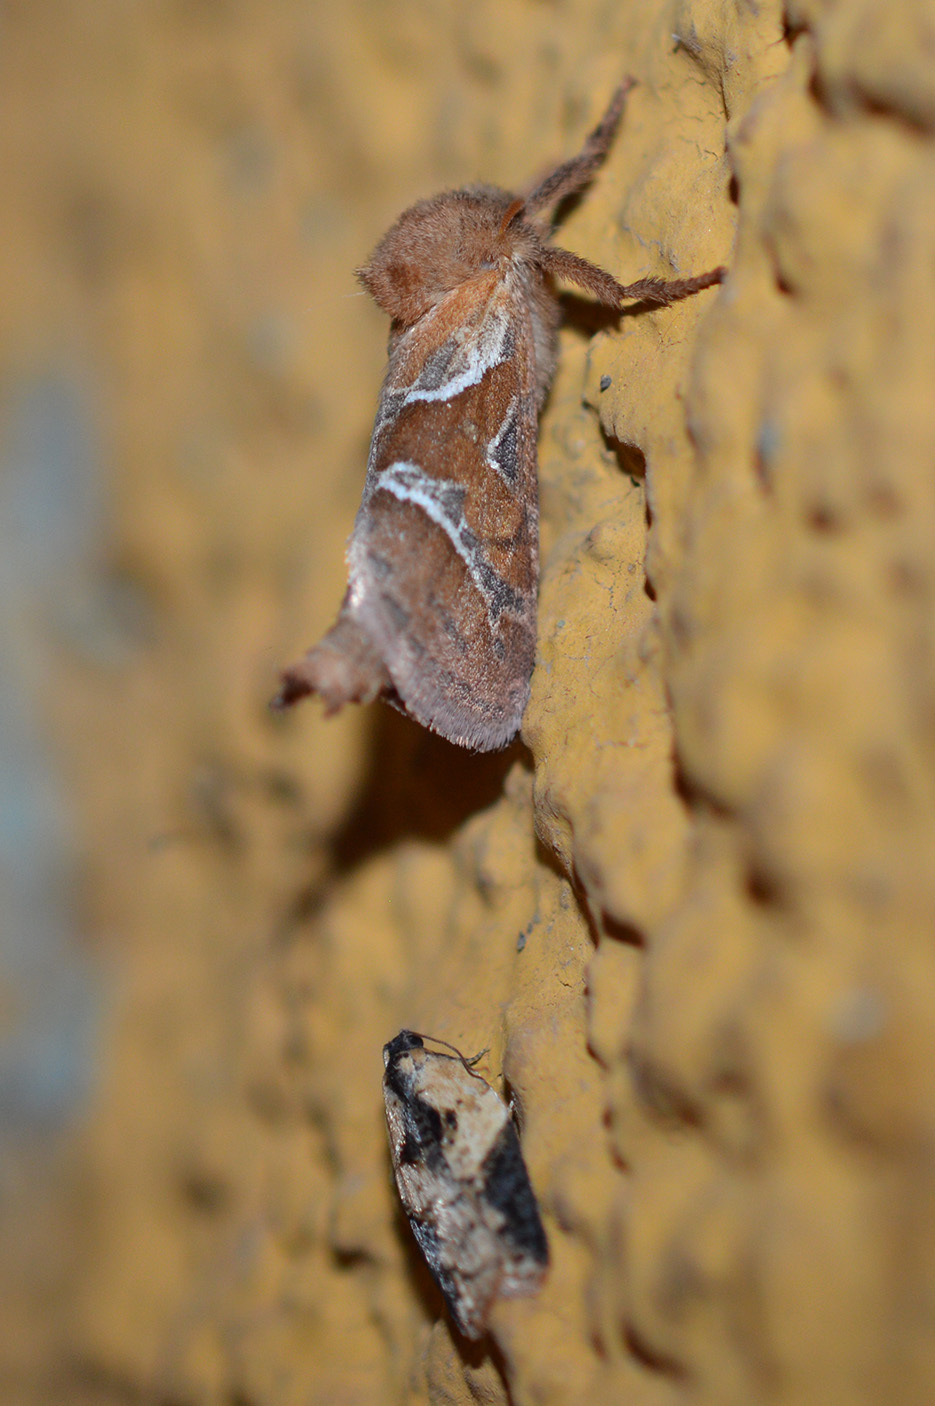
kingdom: Animalia
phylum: Arthropoda
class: Insecta
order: Lepidoptera
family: Hepialidae
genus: Triodia
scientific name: Triodia sylvina
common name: Orange swift
